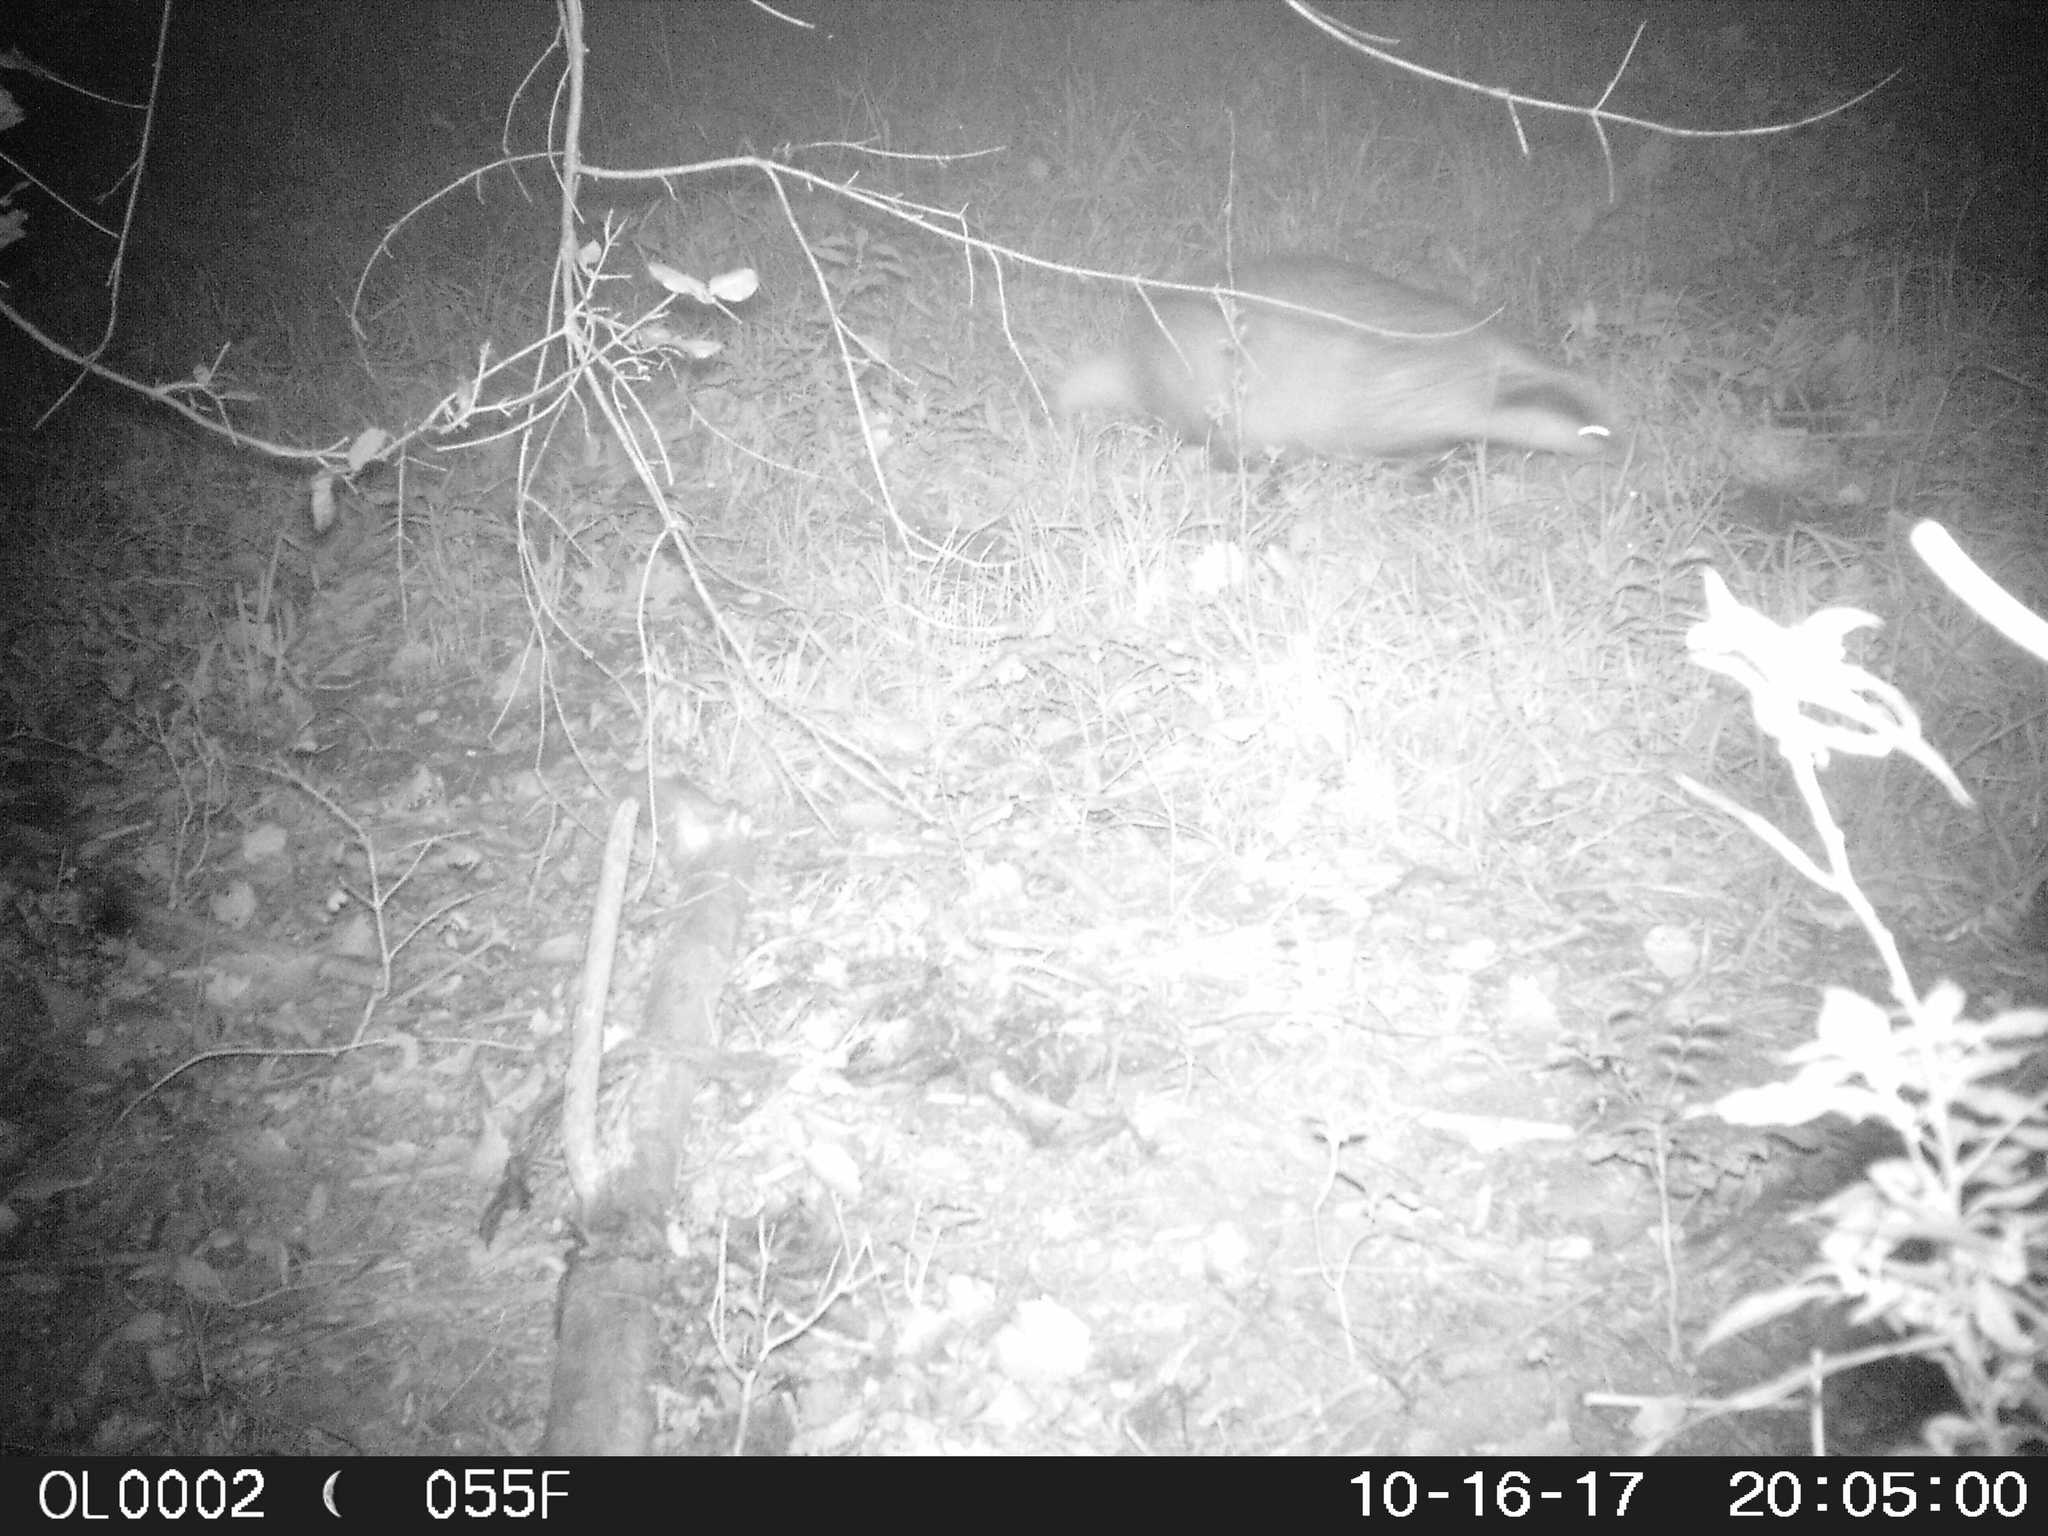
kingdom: Animalia
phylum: Chordata
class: Mammalia
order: Carnivora
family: Mustelidae
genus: Meles
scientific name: Meles meles
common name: Eurasian badger
